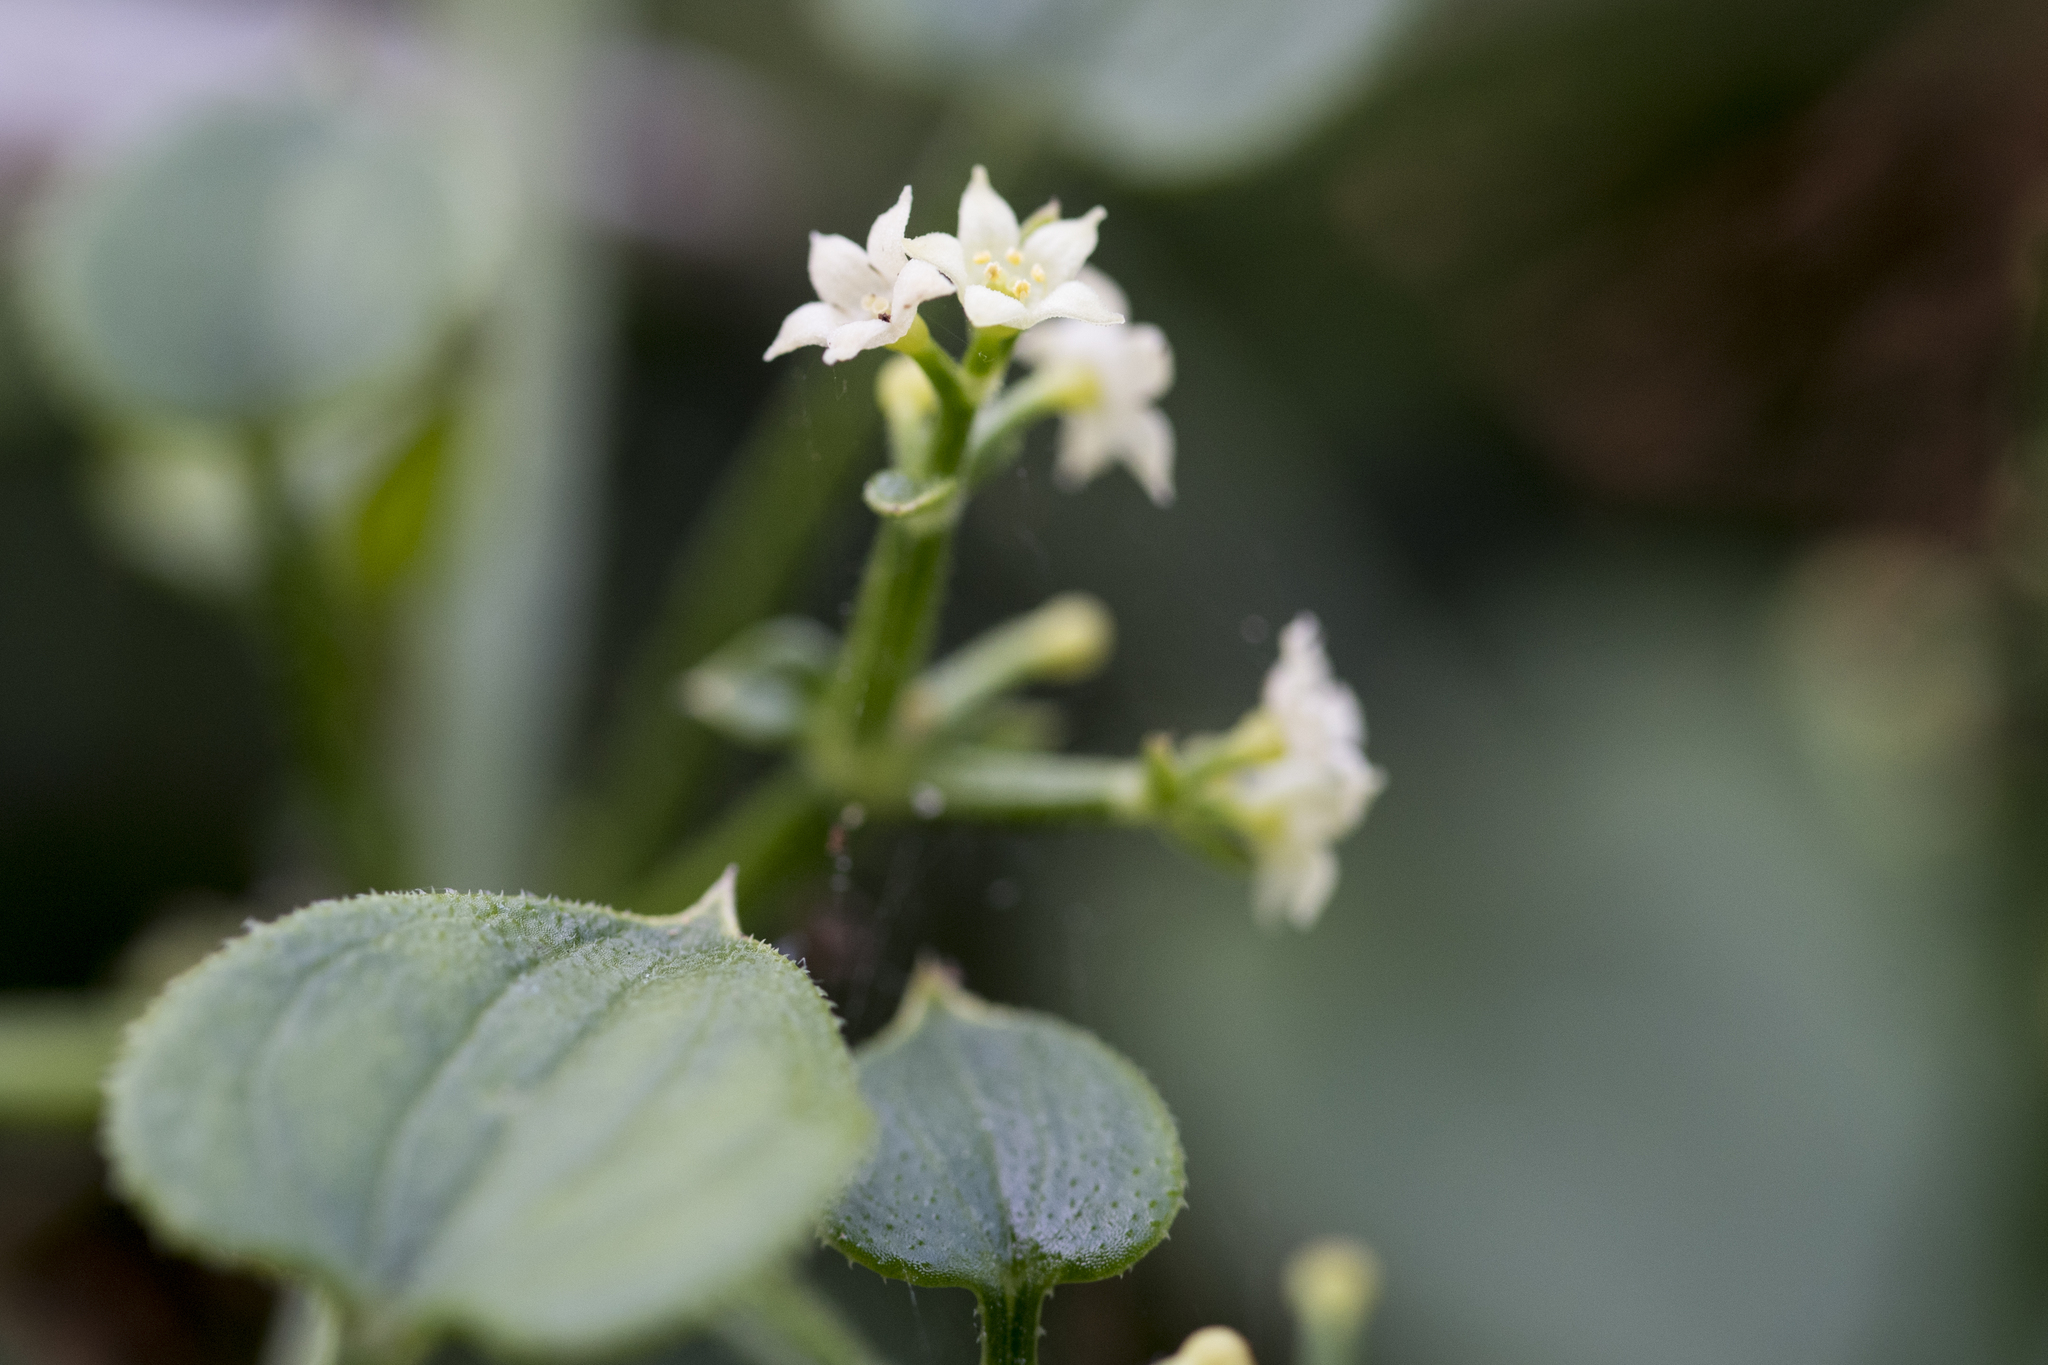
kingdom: Plantae
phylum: Tracheophyta
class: Magnoliopsida
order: Gentianales
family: Rubiaceae
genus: Rubia
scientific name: Rubia argyi
